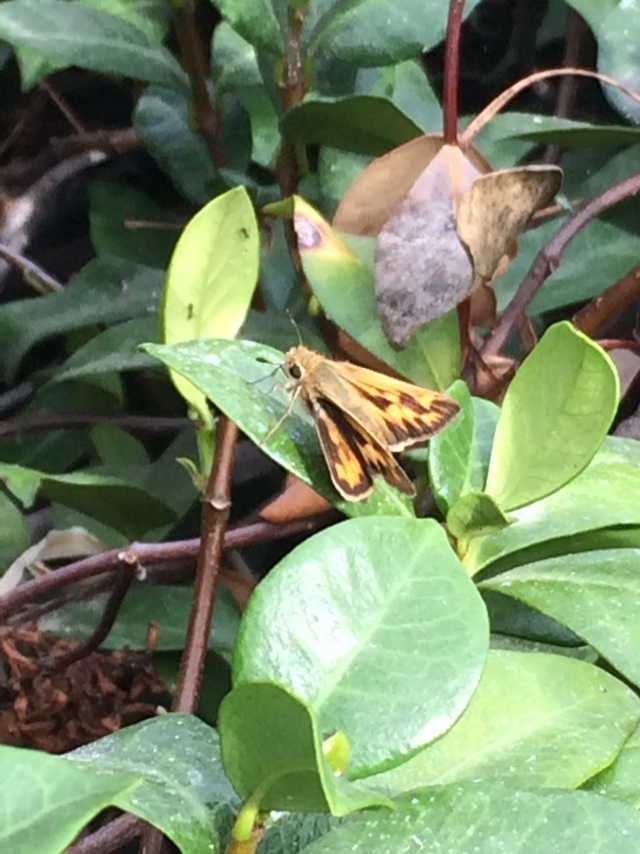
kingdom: Animalia
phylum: Arthropoda
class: Insecta
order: Lepidoptera
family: Hesperiidae
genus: Hylephila
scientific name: Hylephila phyleus
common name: Fiery skipper
